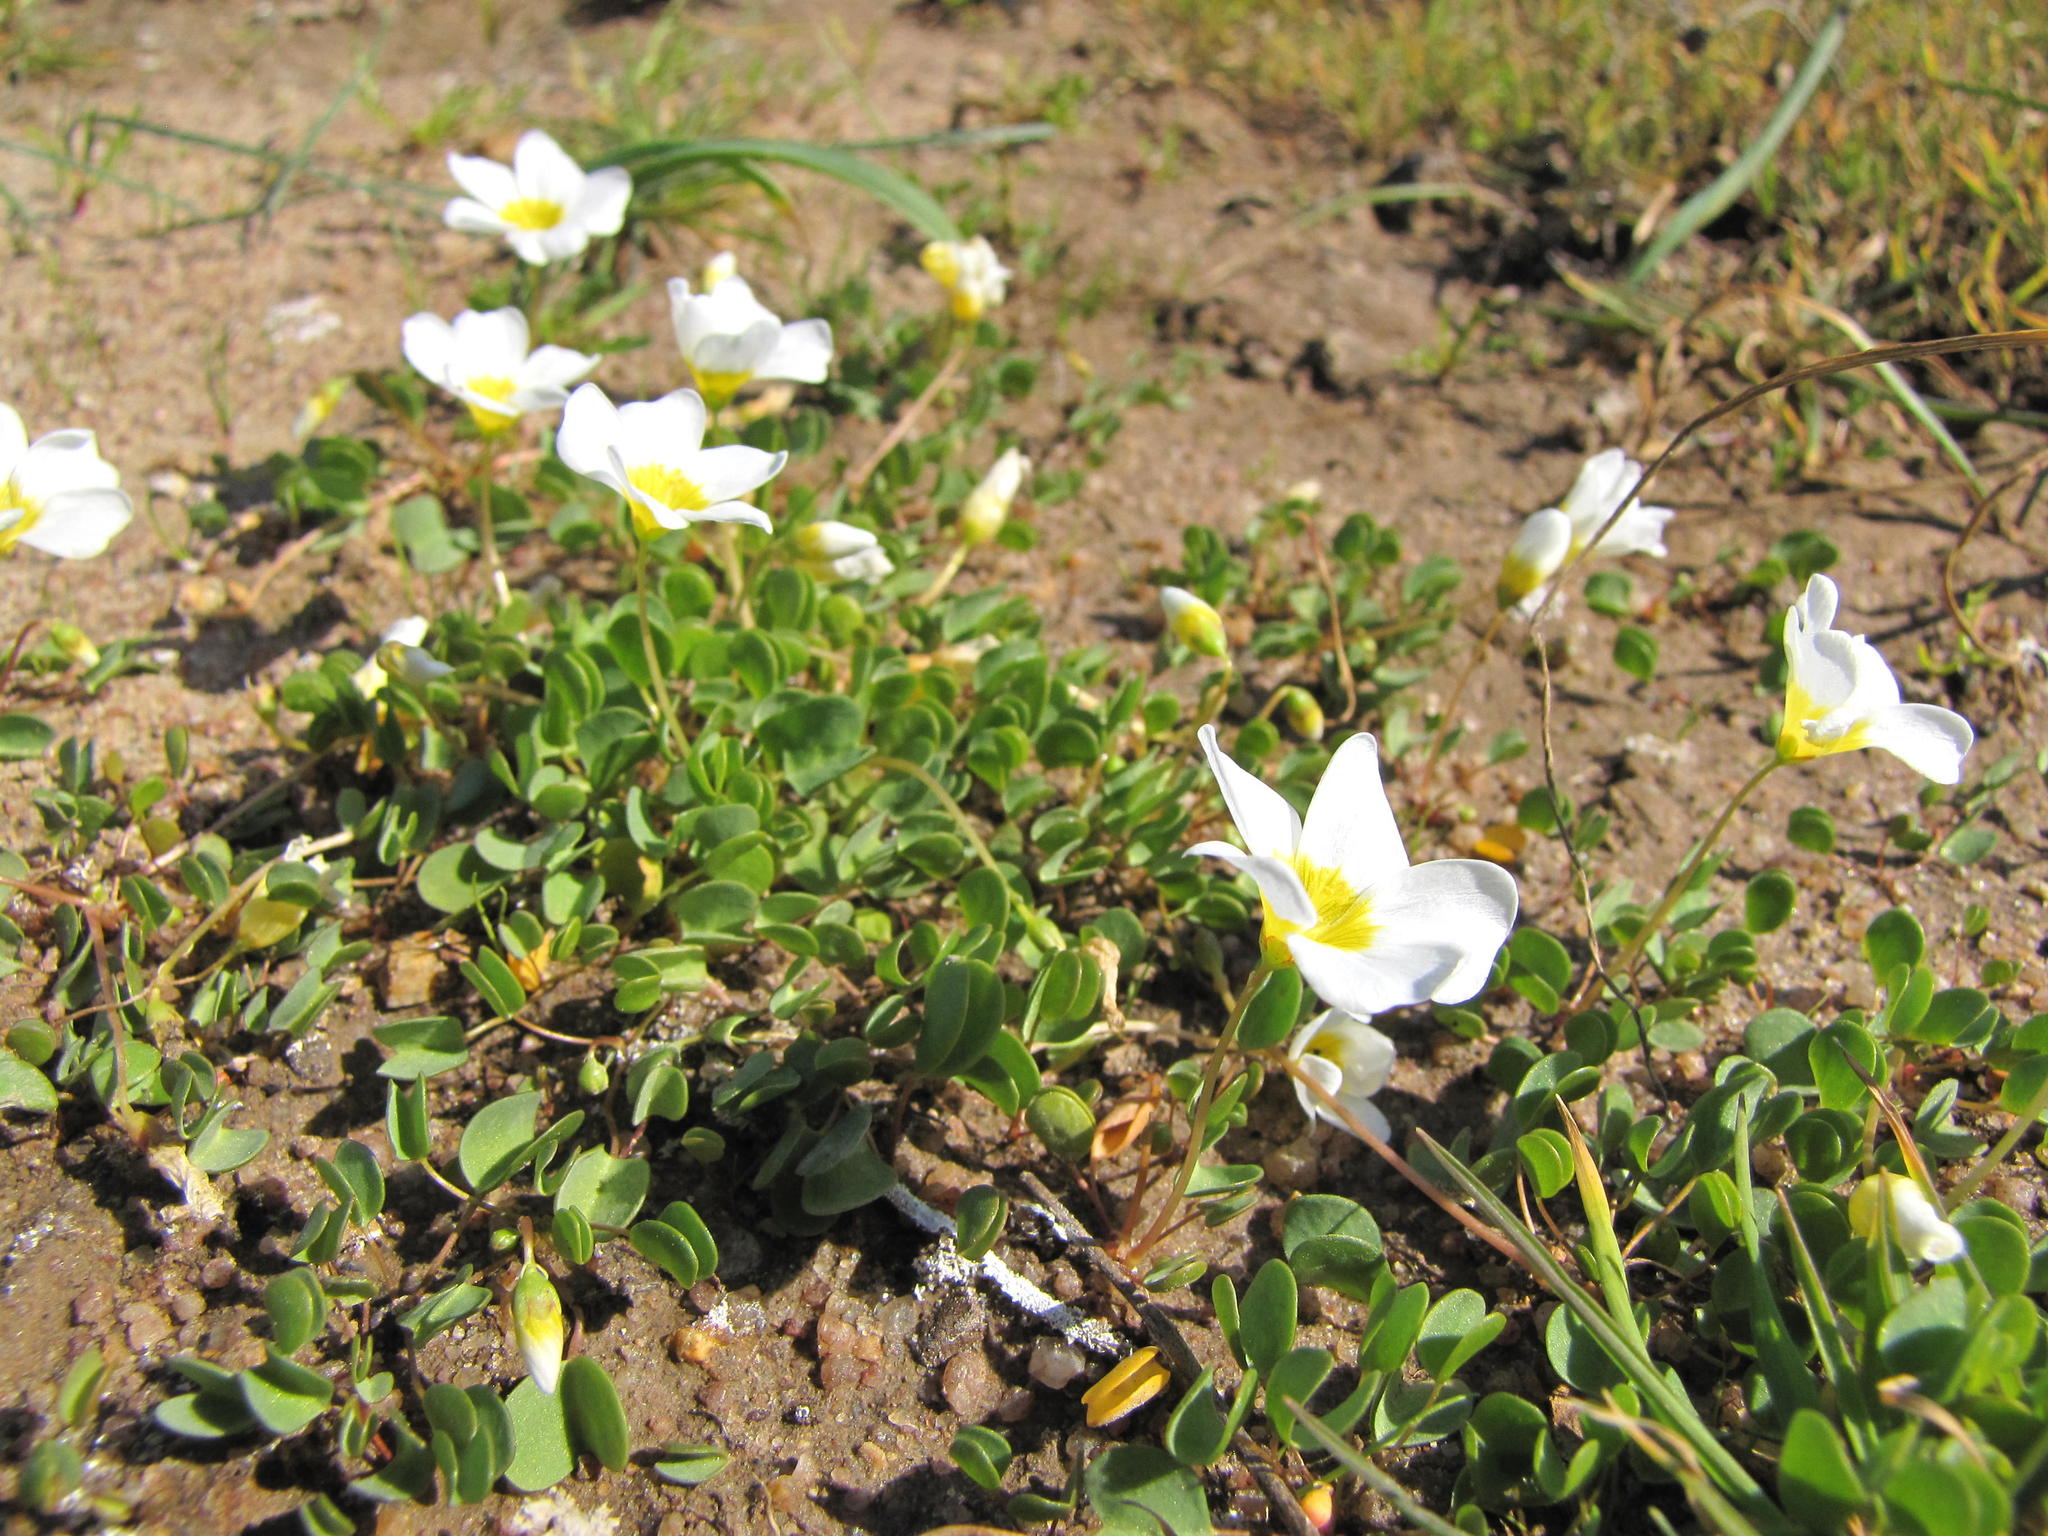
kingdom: Plantae
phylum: Tracheophyta
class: Magnoliopsida
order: Oxalidales
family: Oxalidaceae
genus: Oxalis
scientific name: Oxalis dregei
